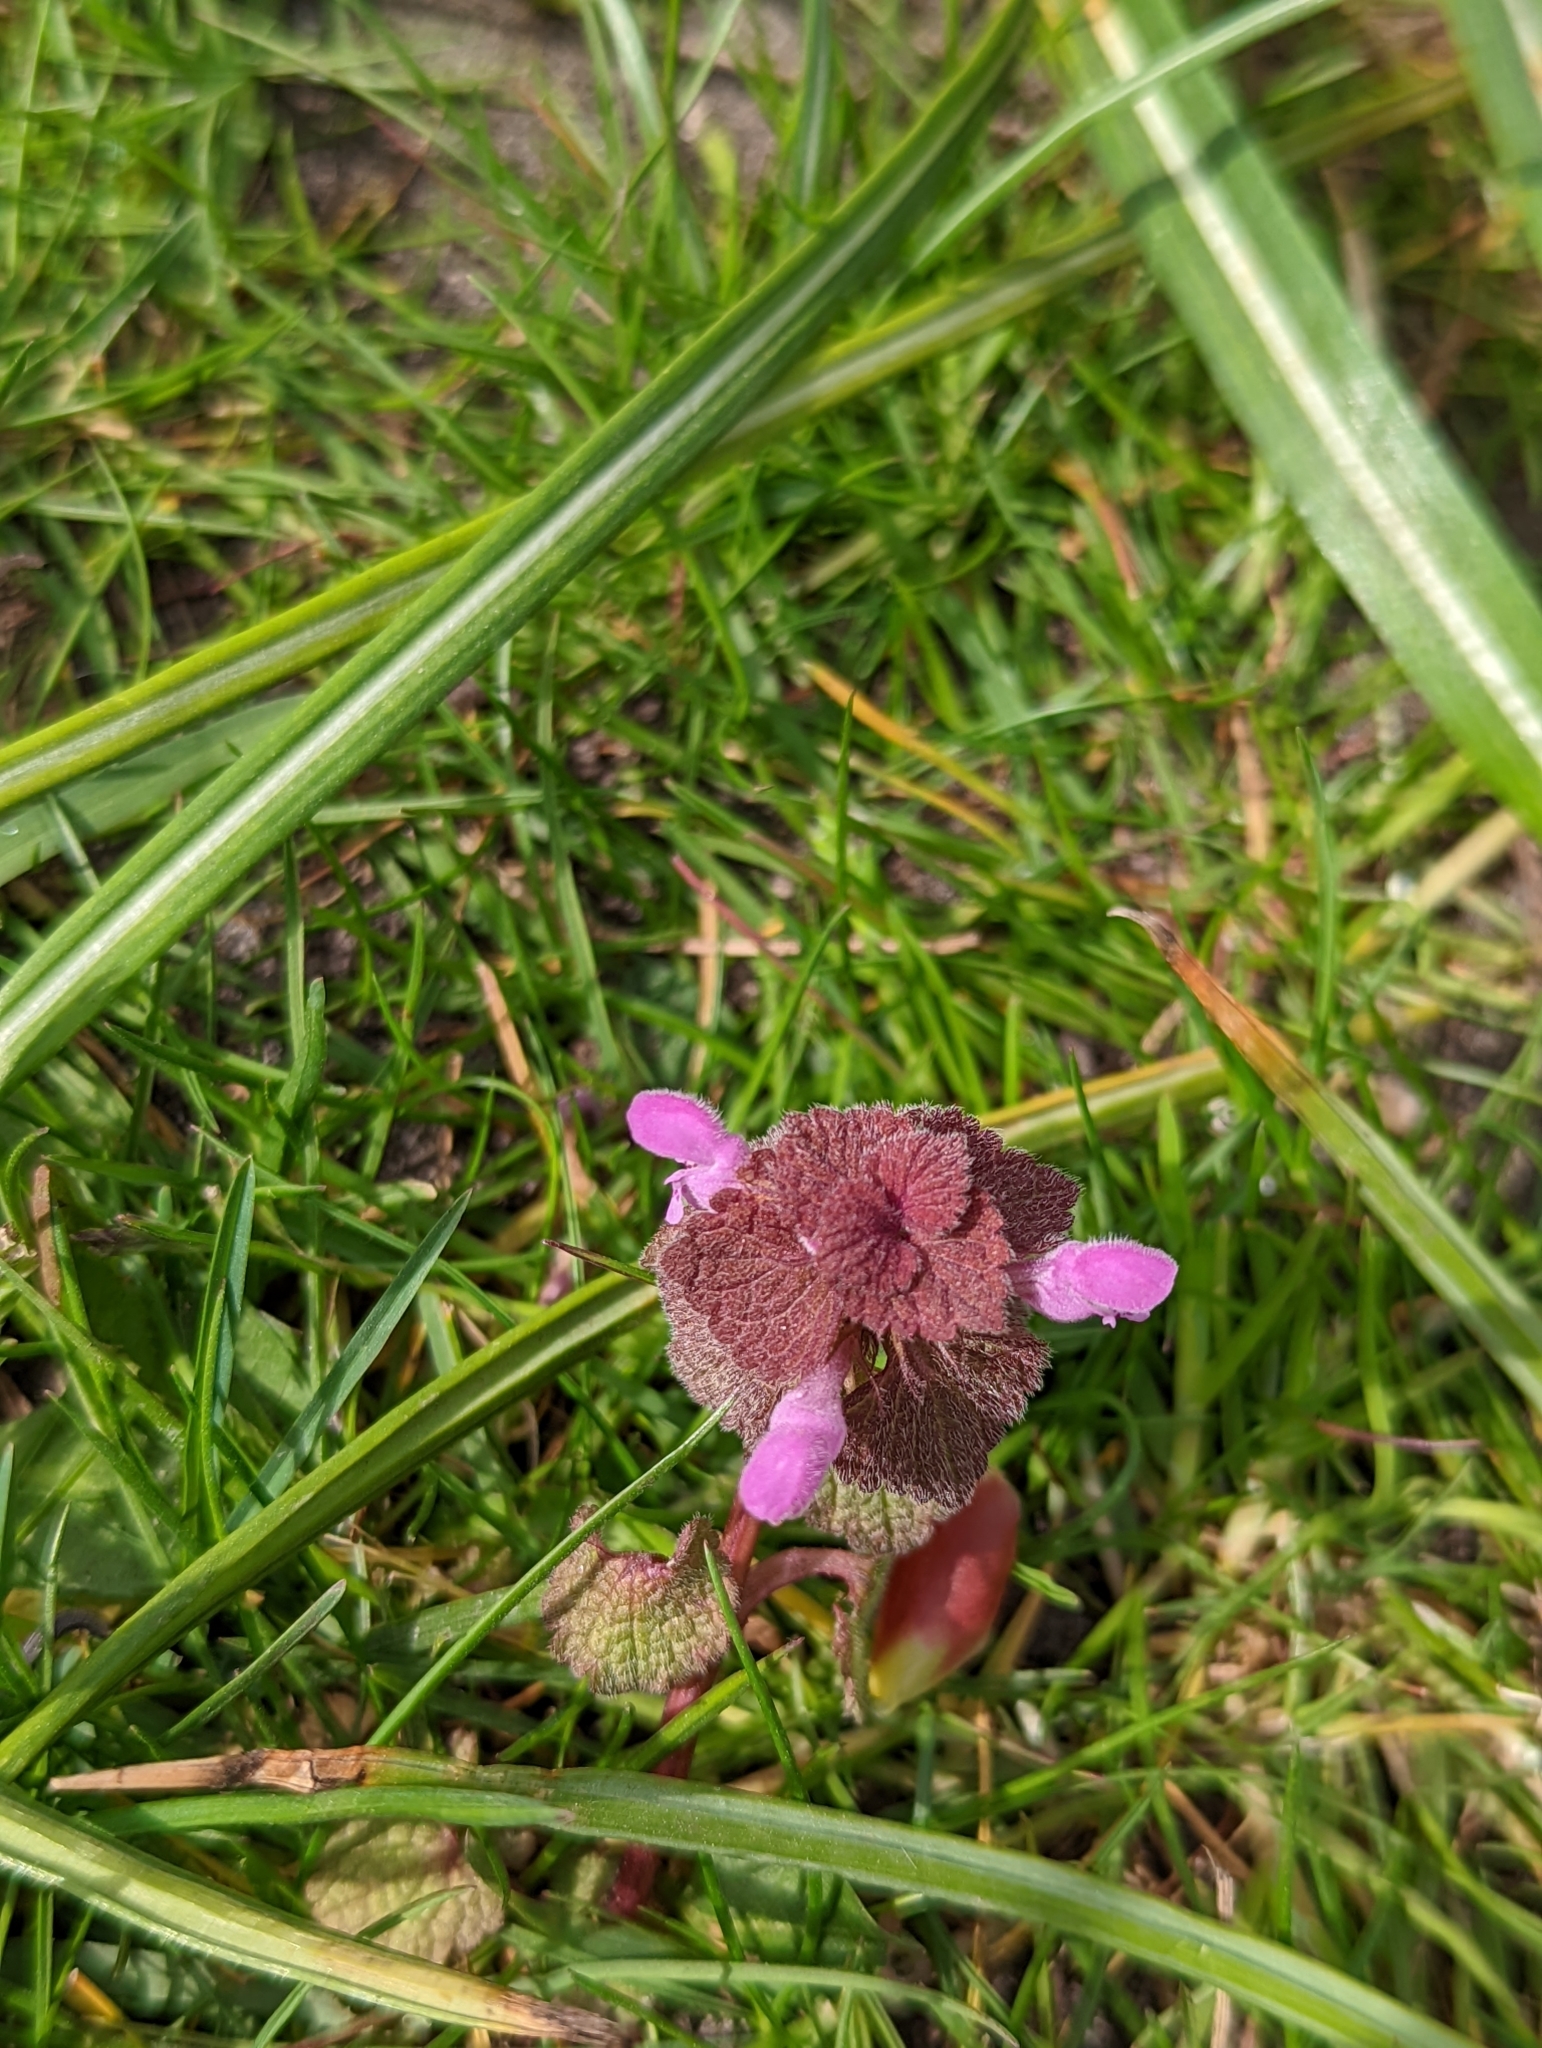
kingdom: Plantae
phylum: Tracheophyta
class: Magnoliopsida
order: Lamiales
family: Lamiaceae
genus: Lamium
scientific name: Lamium purpureum
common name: Red dead-nettle
